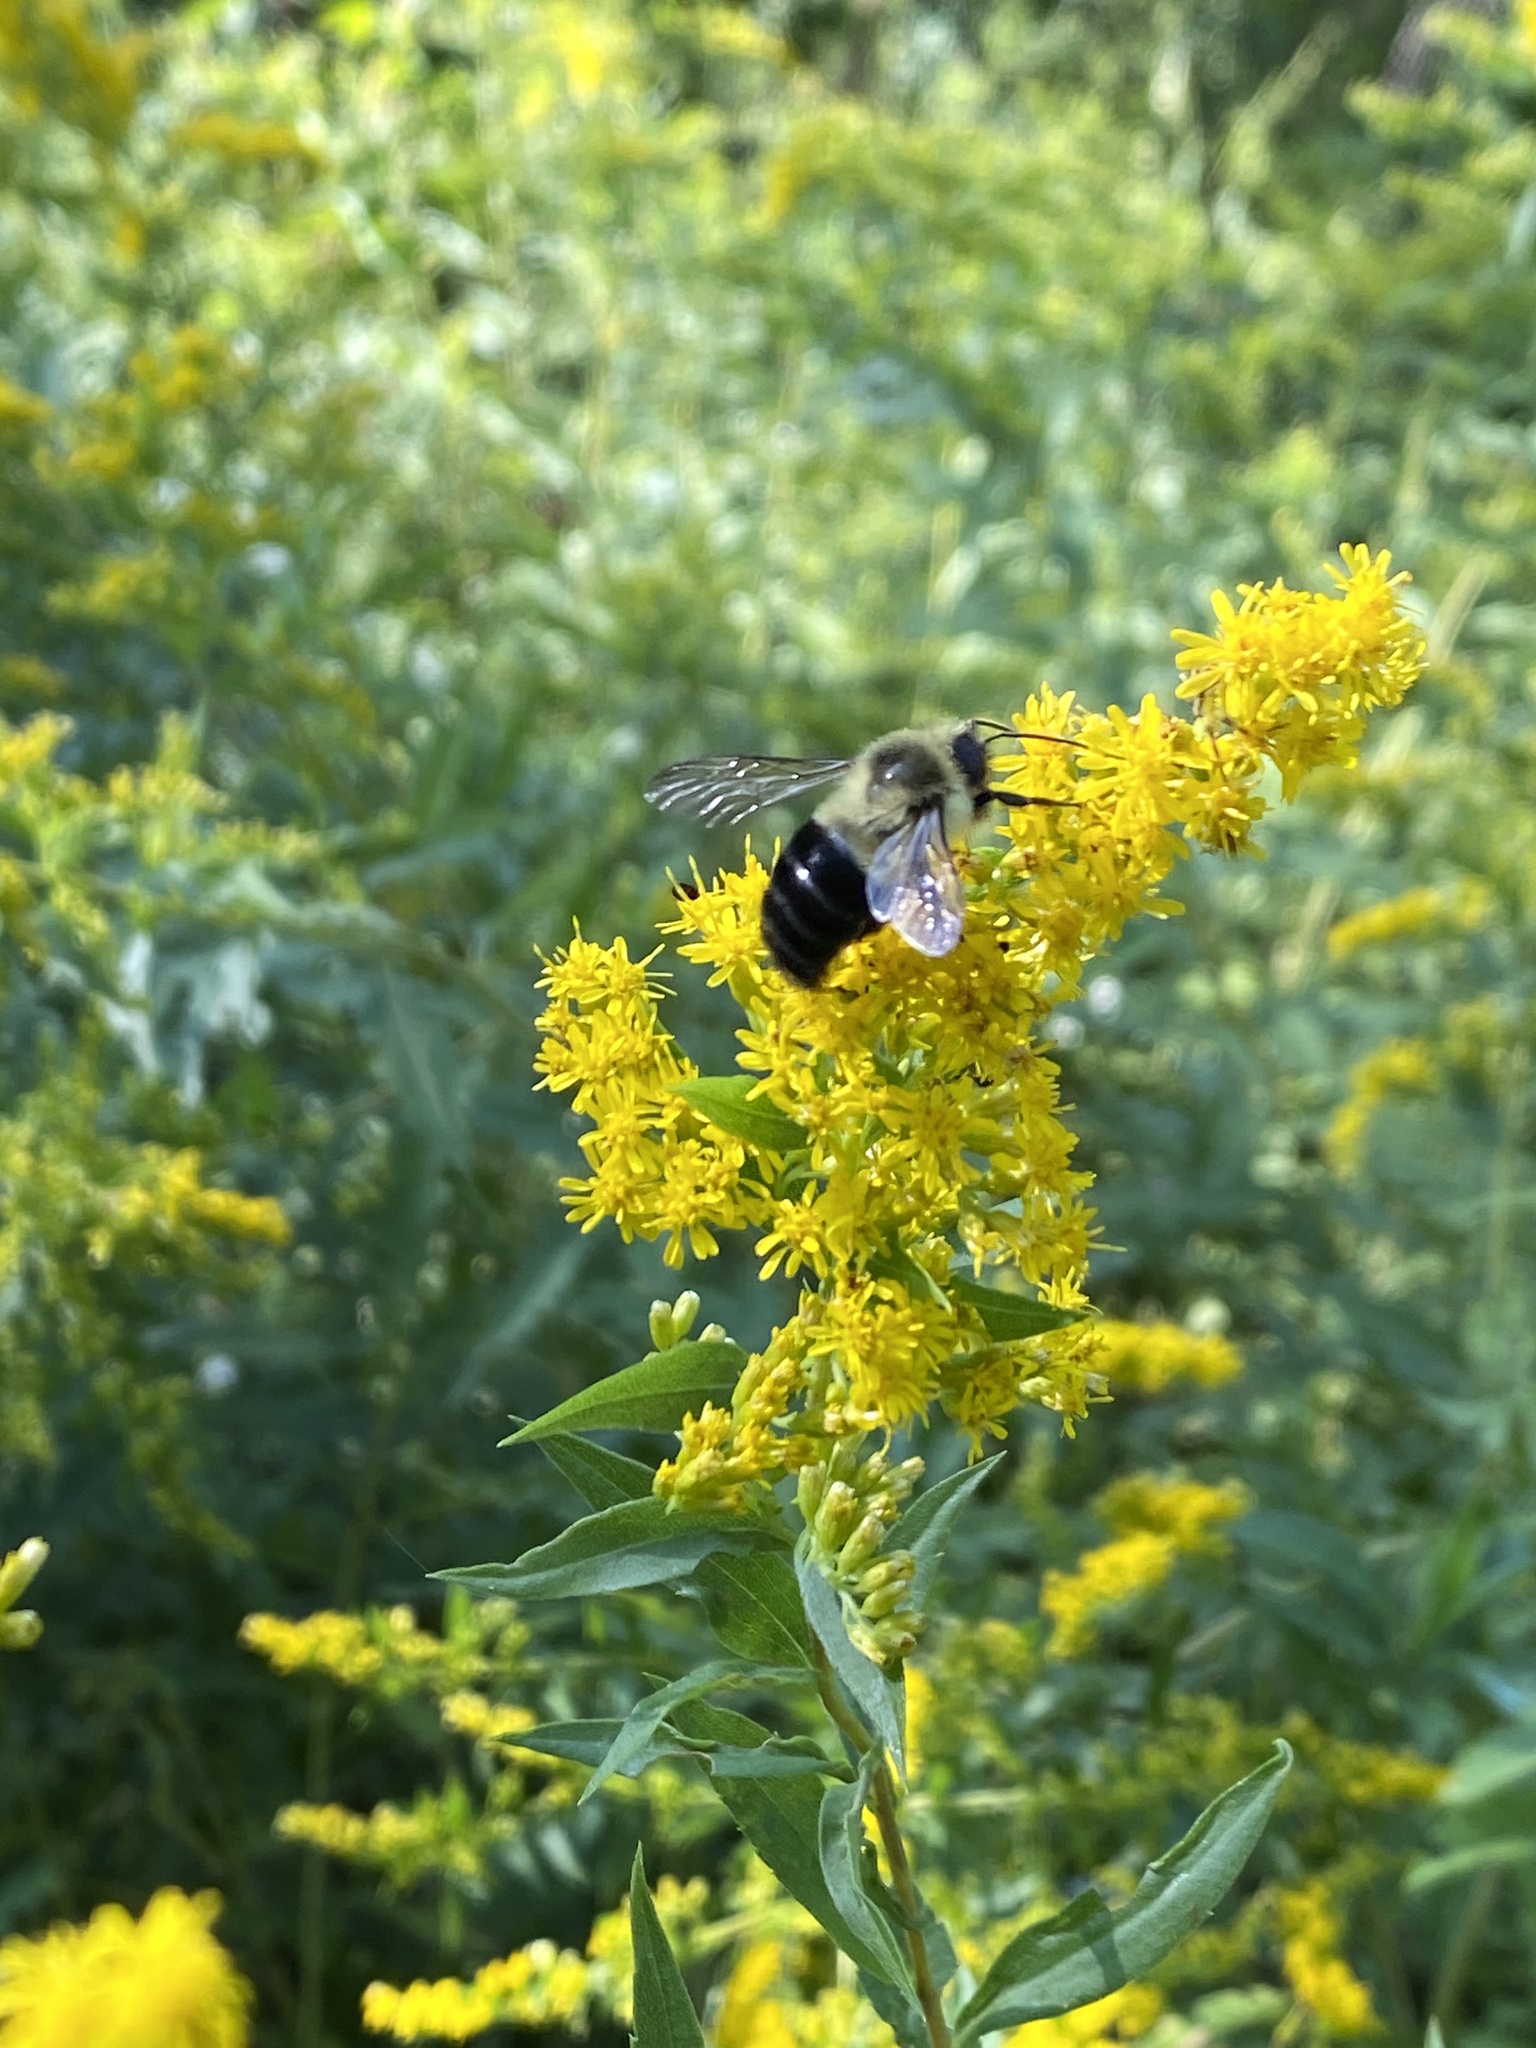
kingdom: Animalia
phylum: Arthropoda
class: Insecta
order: Hymenoptera
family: Apidae
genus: Bombus
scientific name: Bombus impatiens
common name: Common eastern bumble bee
